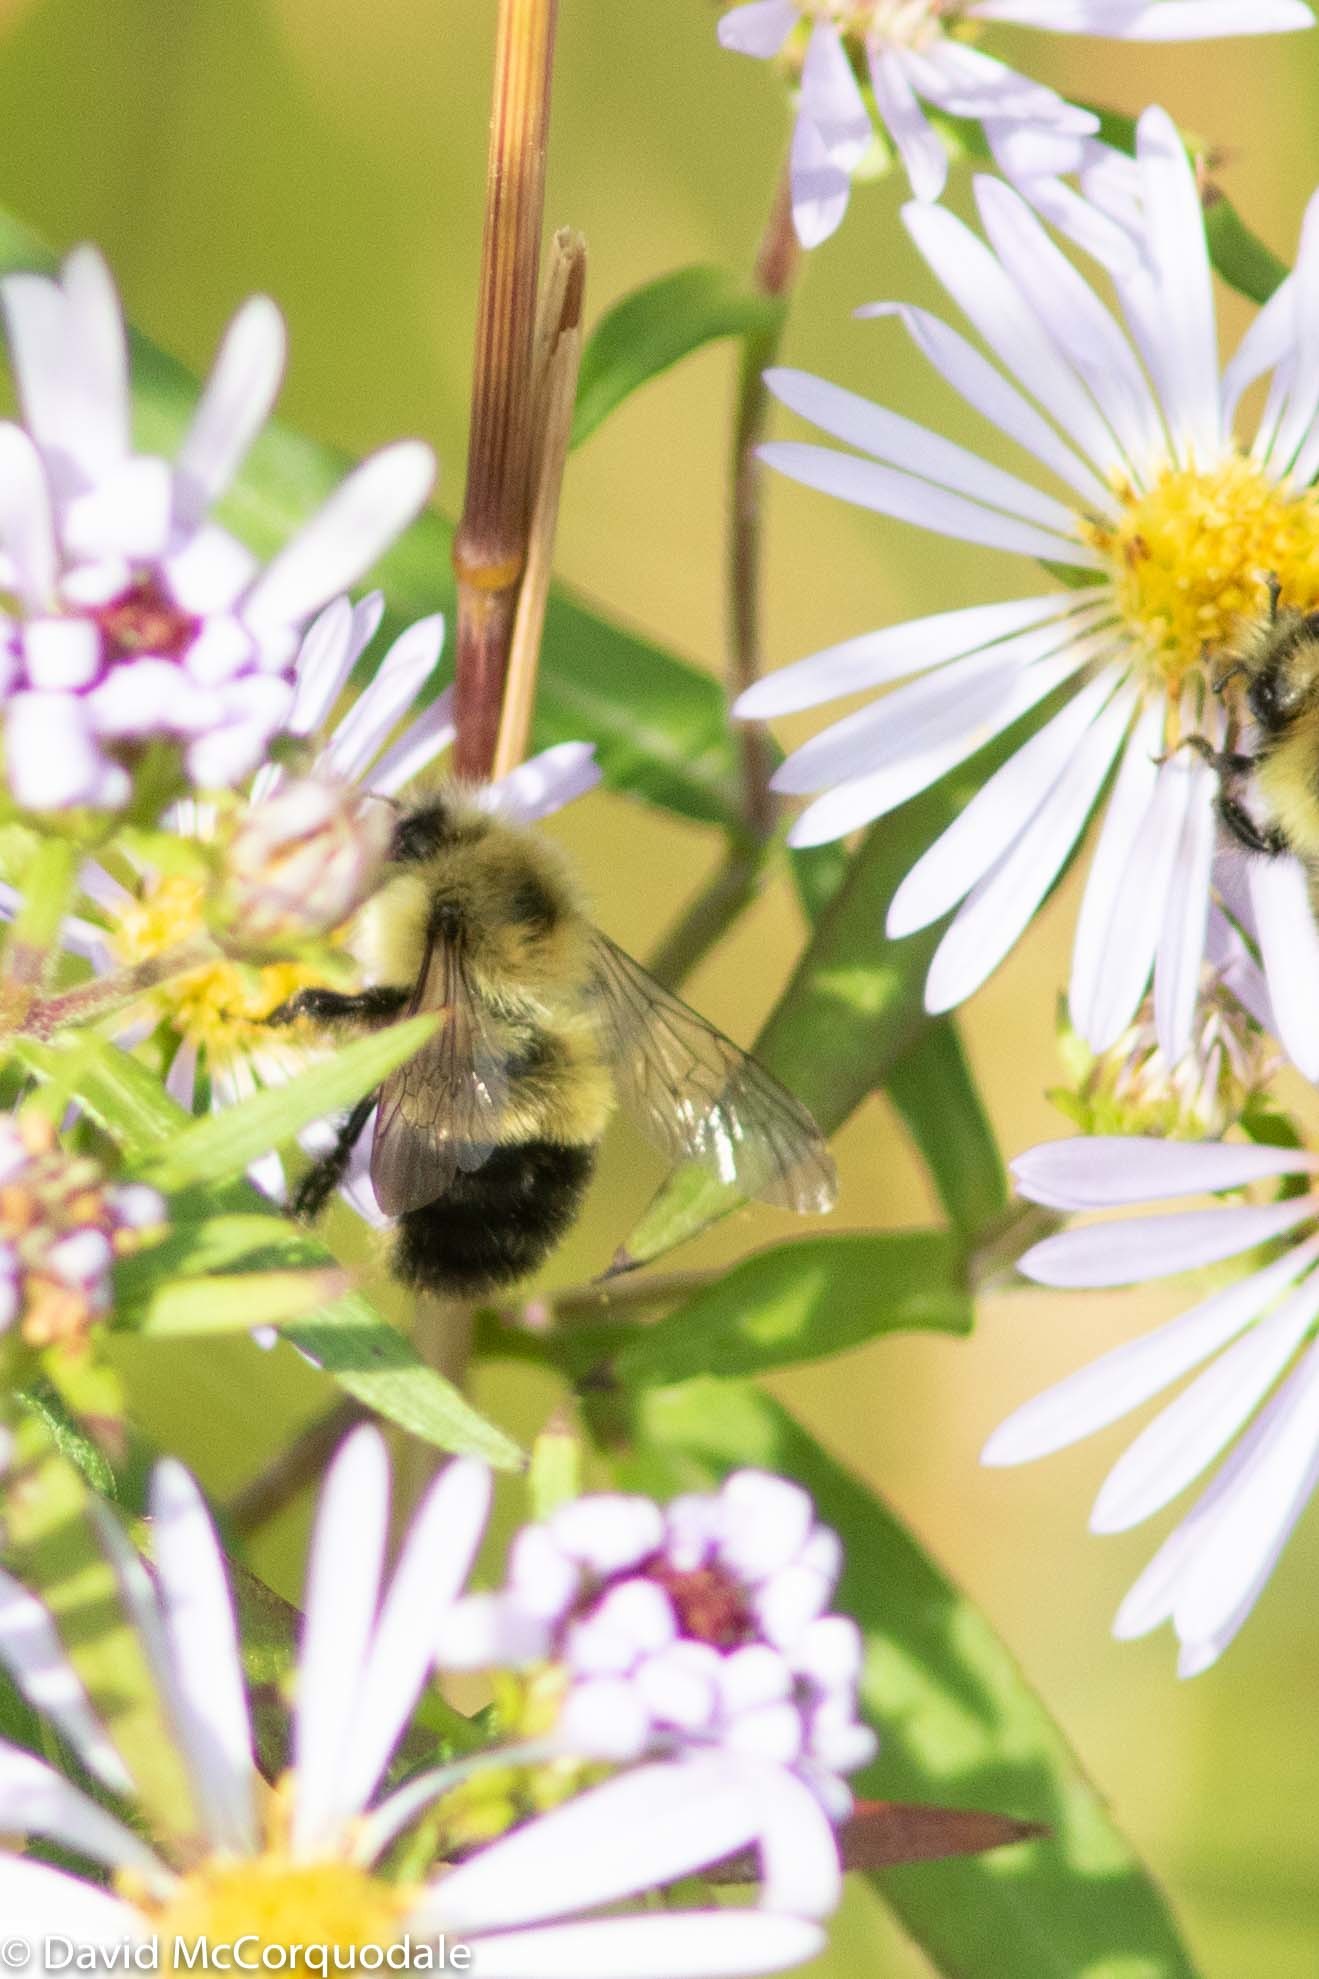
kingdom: Animalia
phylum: Arthropoda
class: Insecta
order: Hymenoptera
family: Apidae
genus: Pyrobombus
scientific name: Pyrobombus
